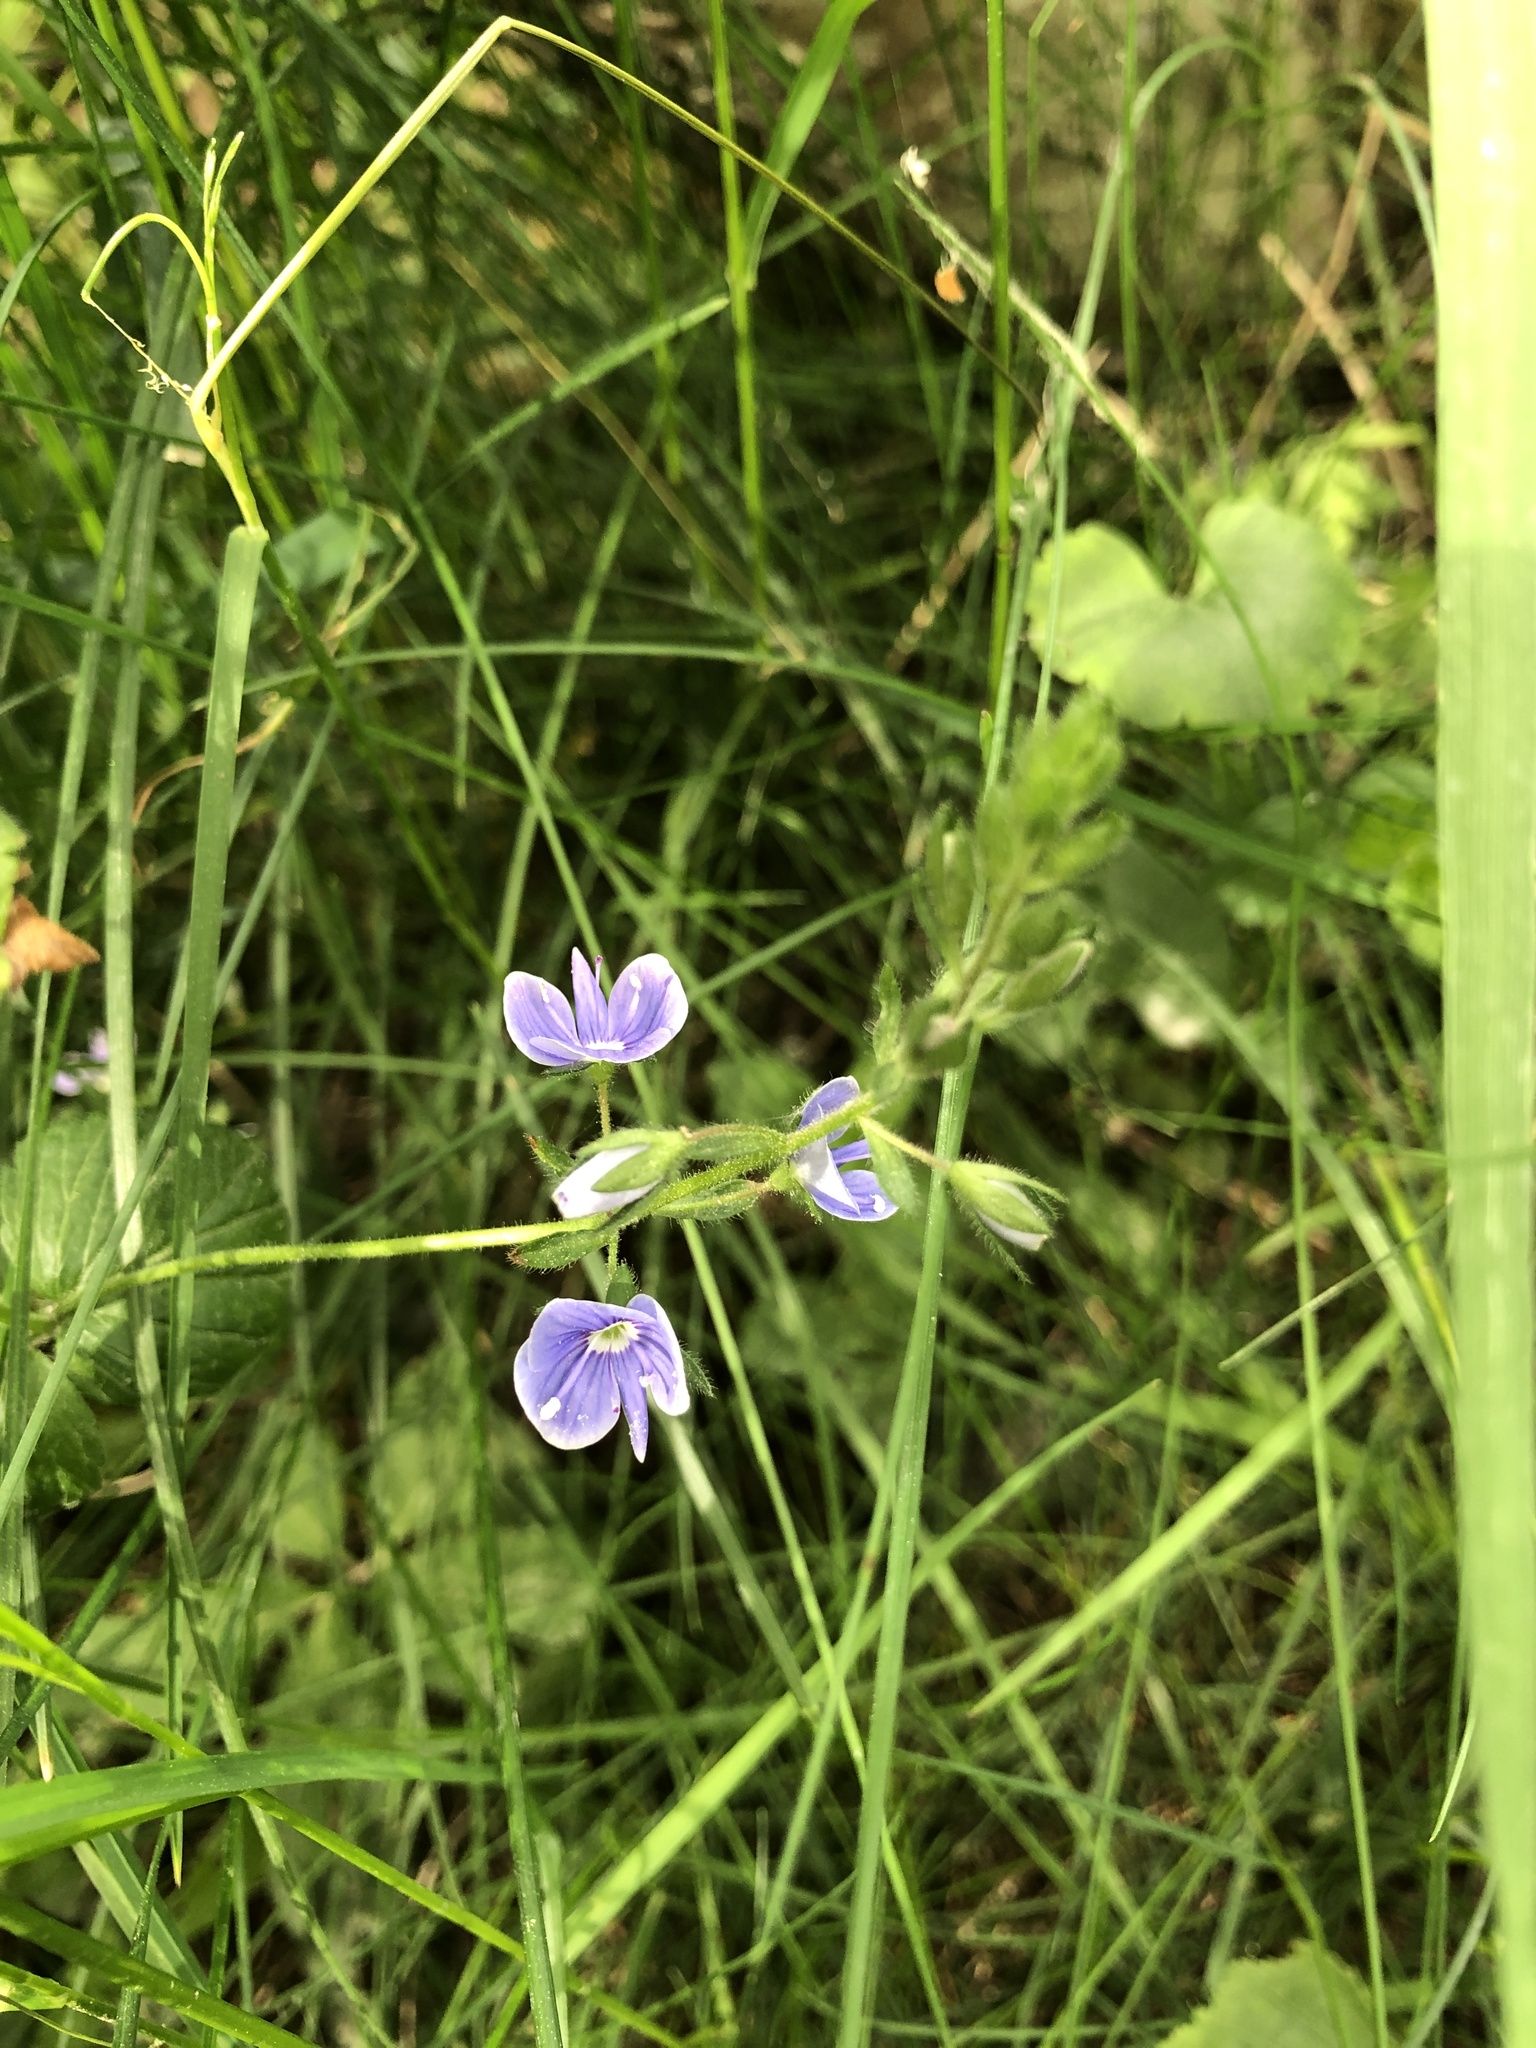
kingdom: Plantae
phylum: Tracheophyta
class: Magnoliopsida
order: Lamiales
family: Plantaginaceae
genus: Veronica
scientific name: Veronica chamaedrys
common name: Germander speedwell
